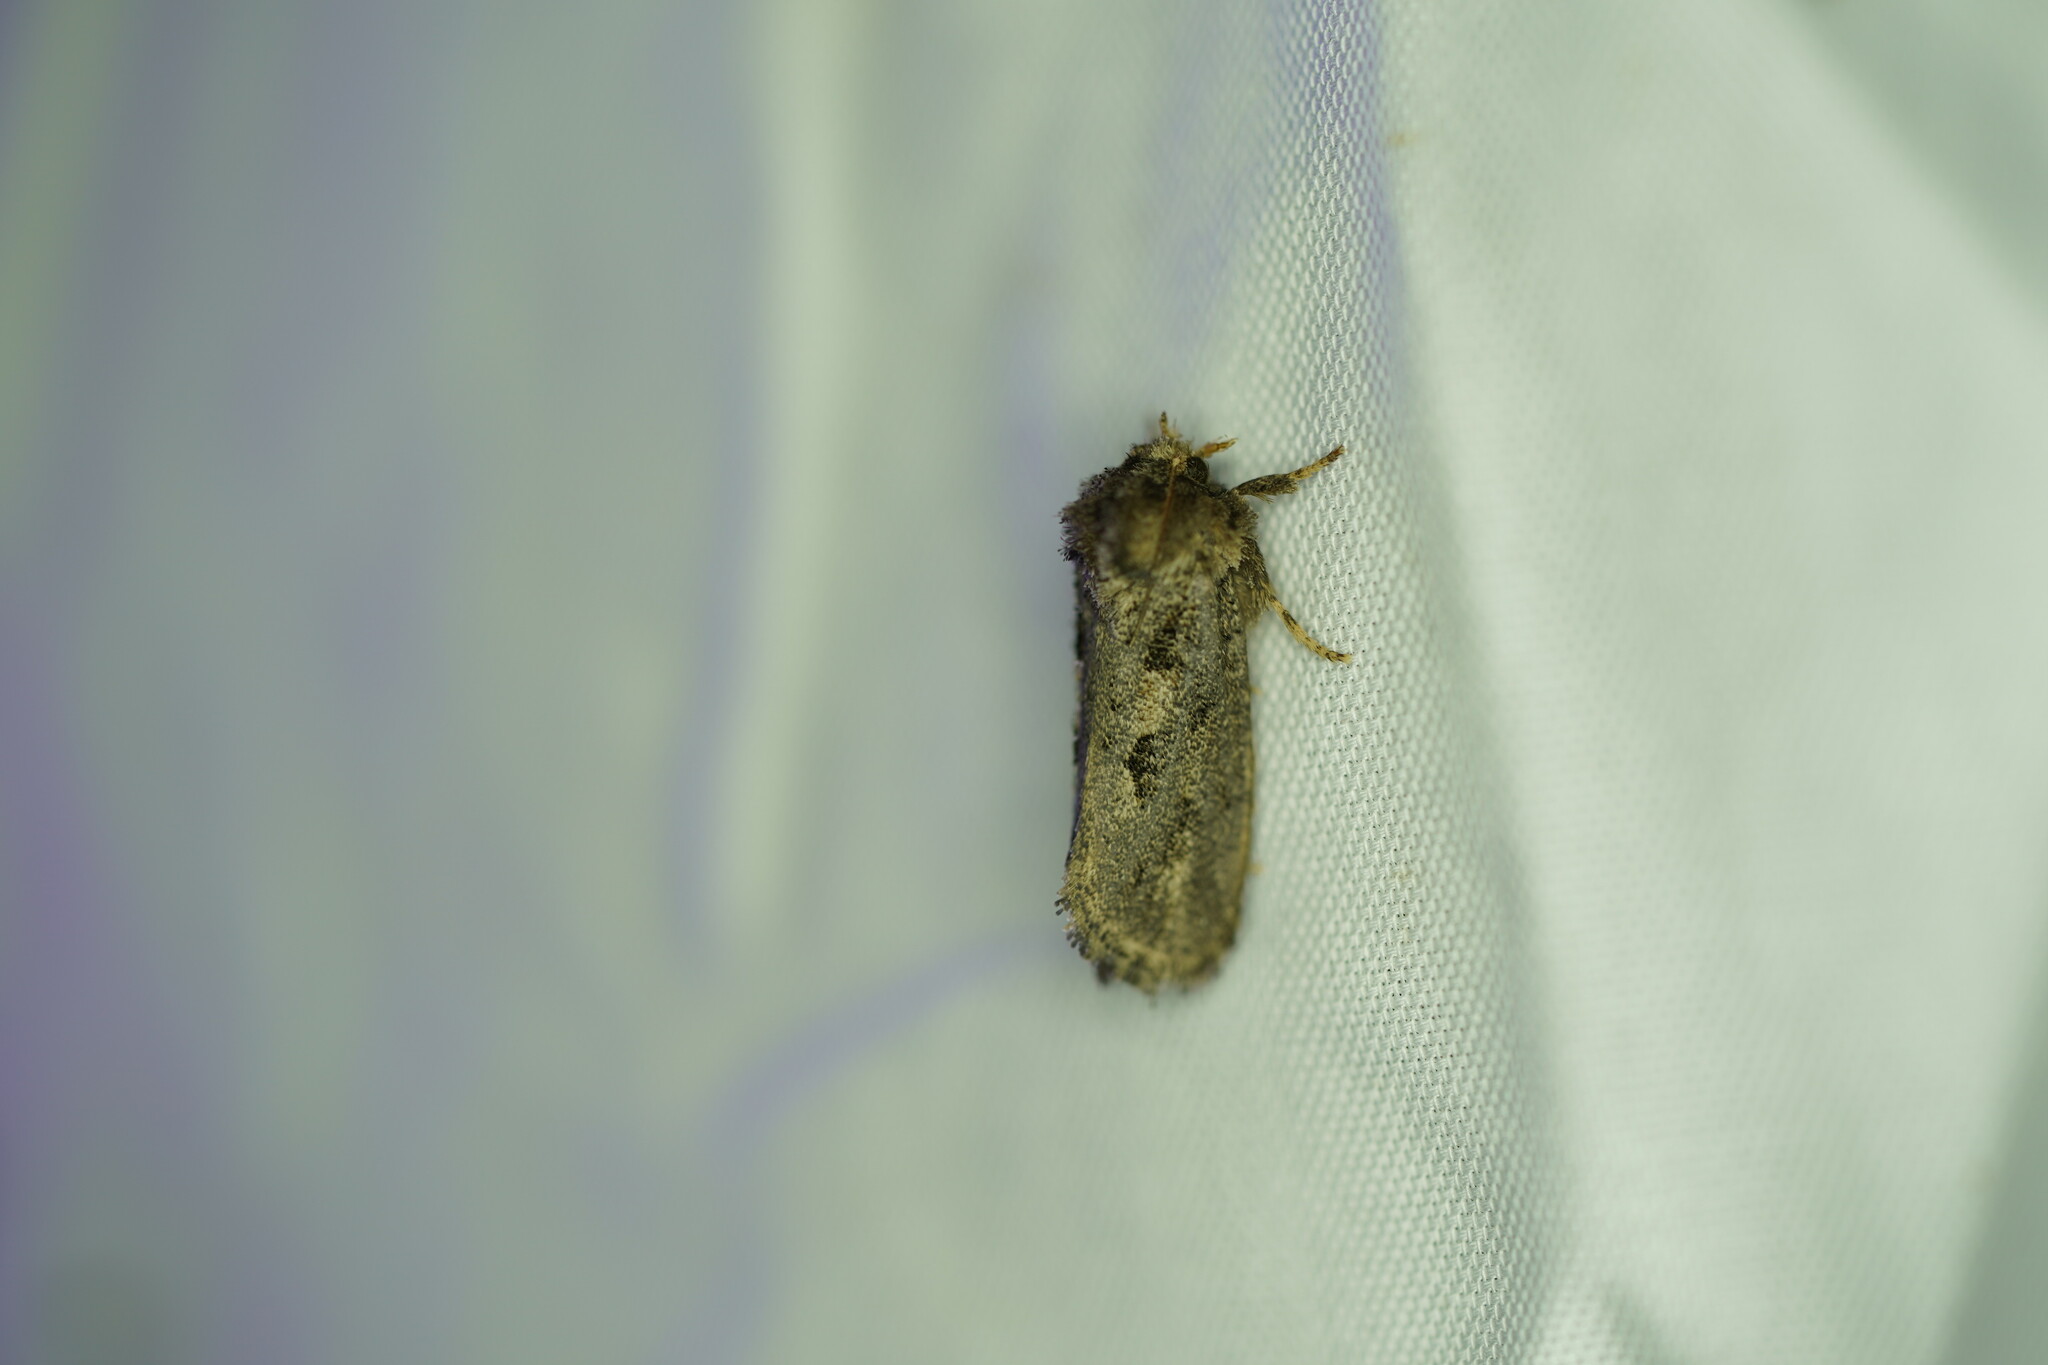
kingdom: Animalia
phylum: Arthropoda
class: Insecta
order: Lepidoptera
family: Tineidae
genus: Acrolophus
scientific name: Acrolophus arcanella
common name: Arcane grass tubeworm moth
